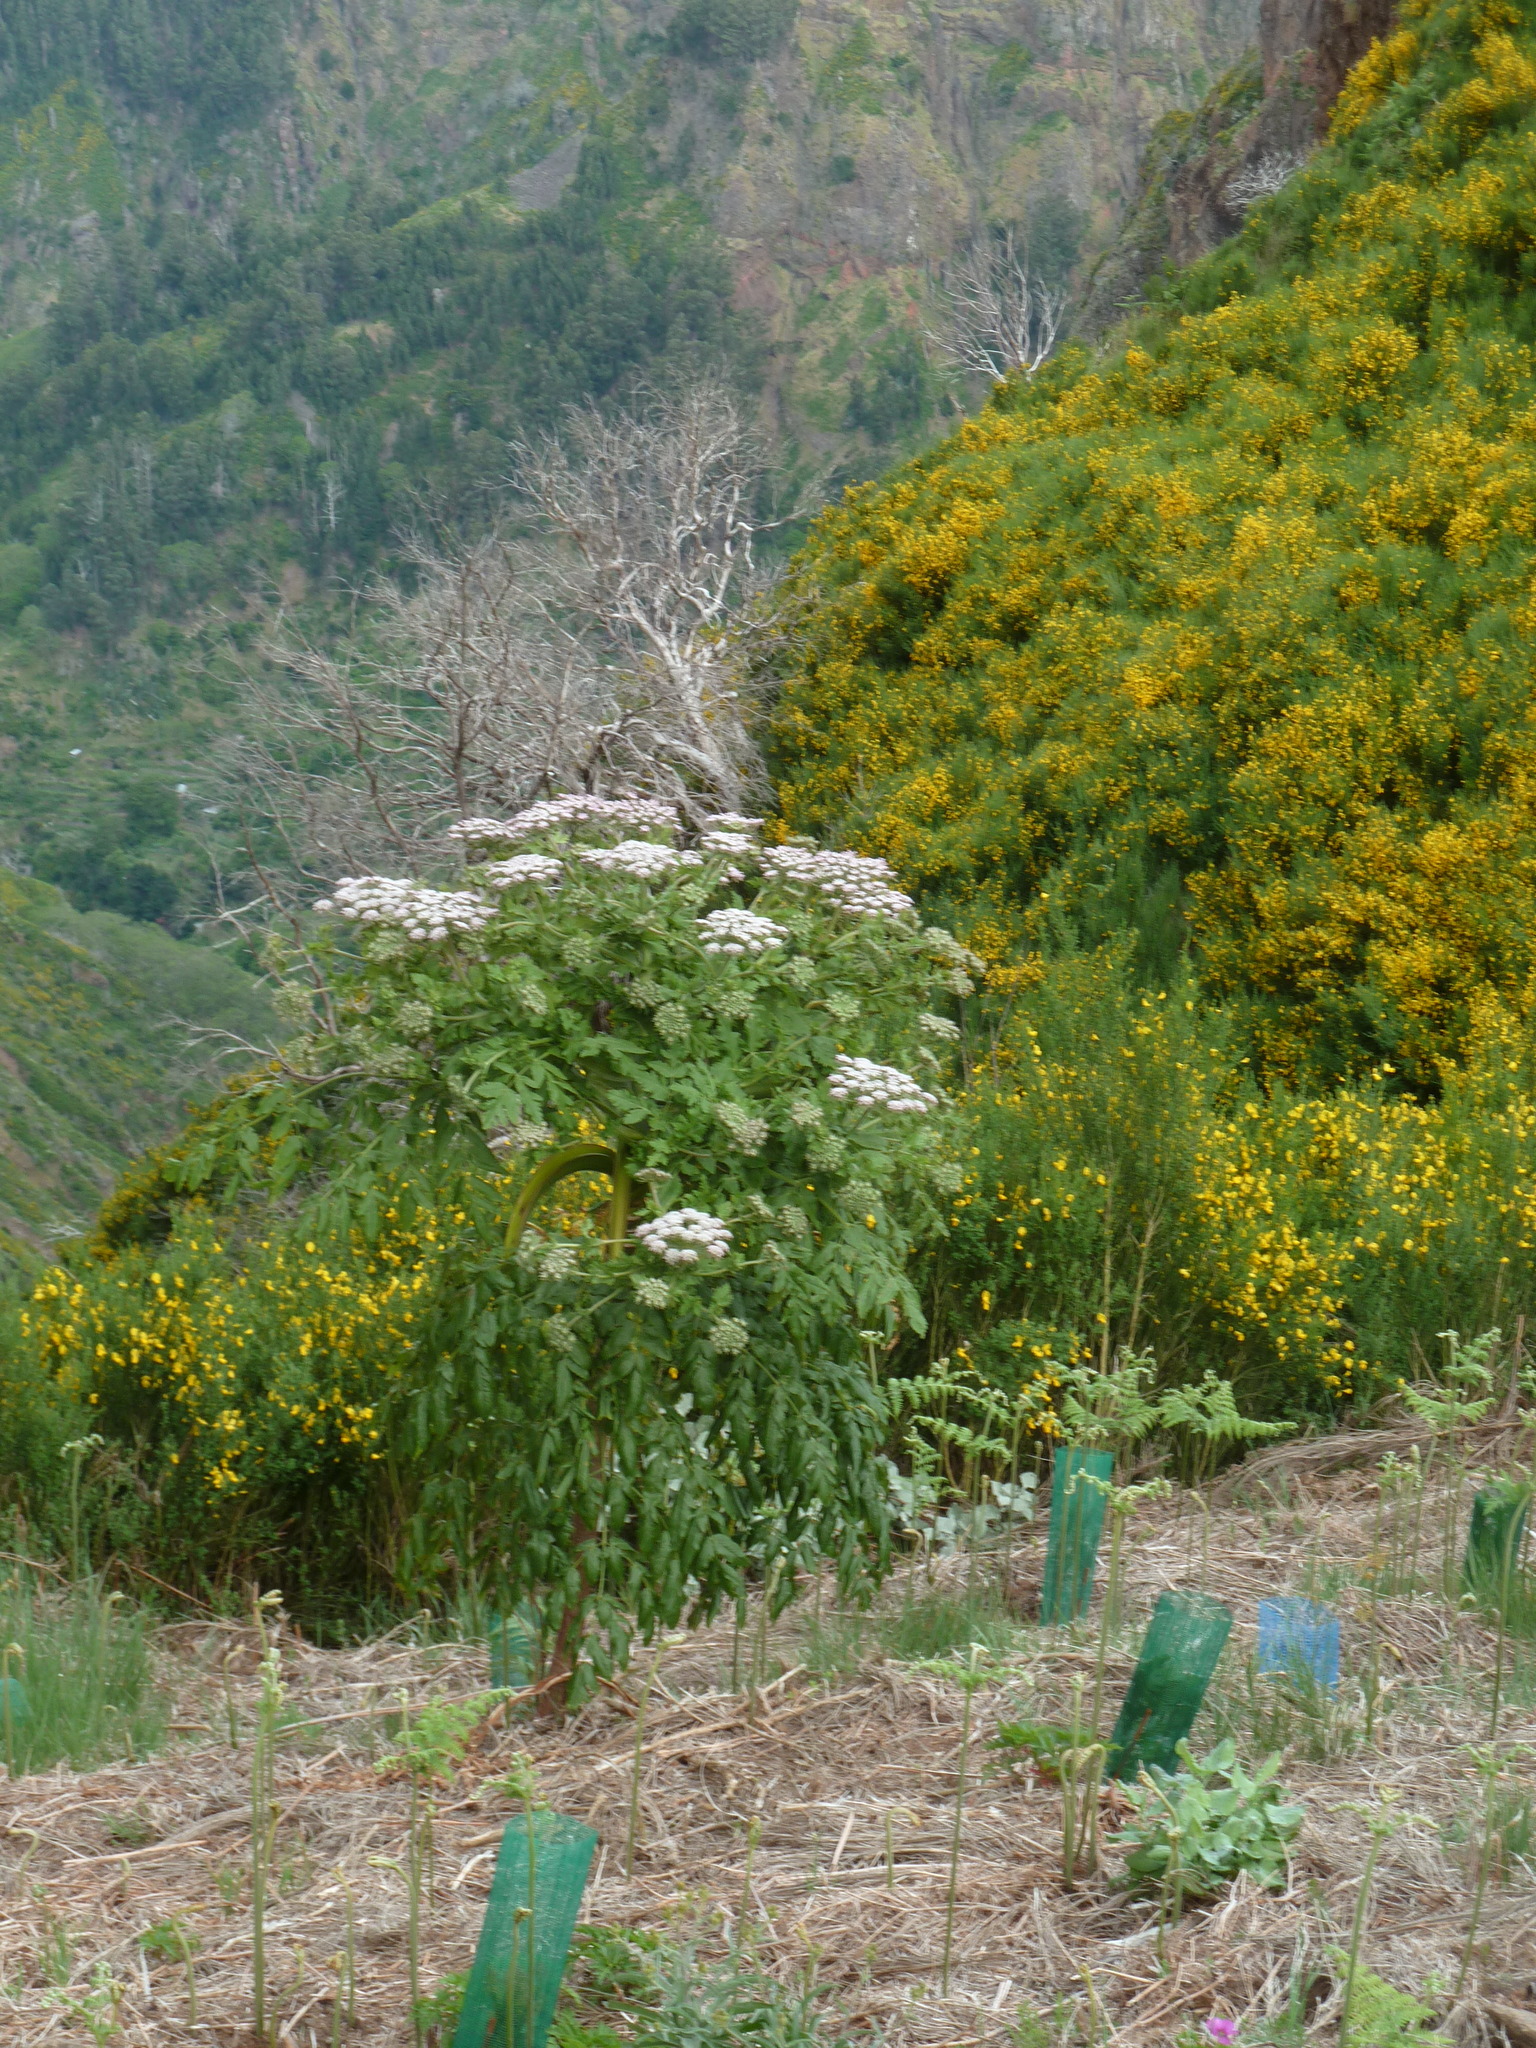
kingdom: Plantae
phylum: Tracheophyta
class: Magnoliopsida
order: Apiales
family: Apiaceae
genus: Daucus
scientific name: Daucus decipiens
